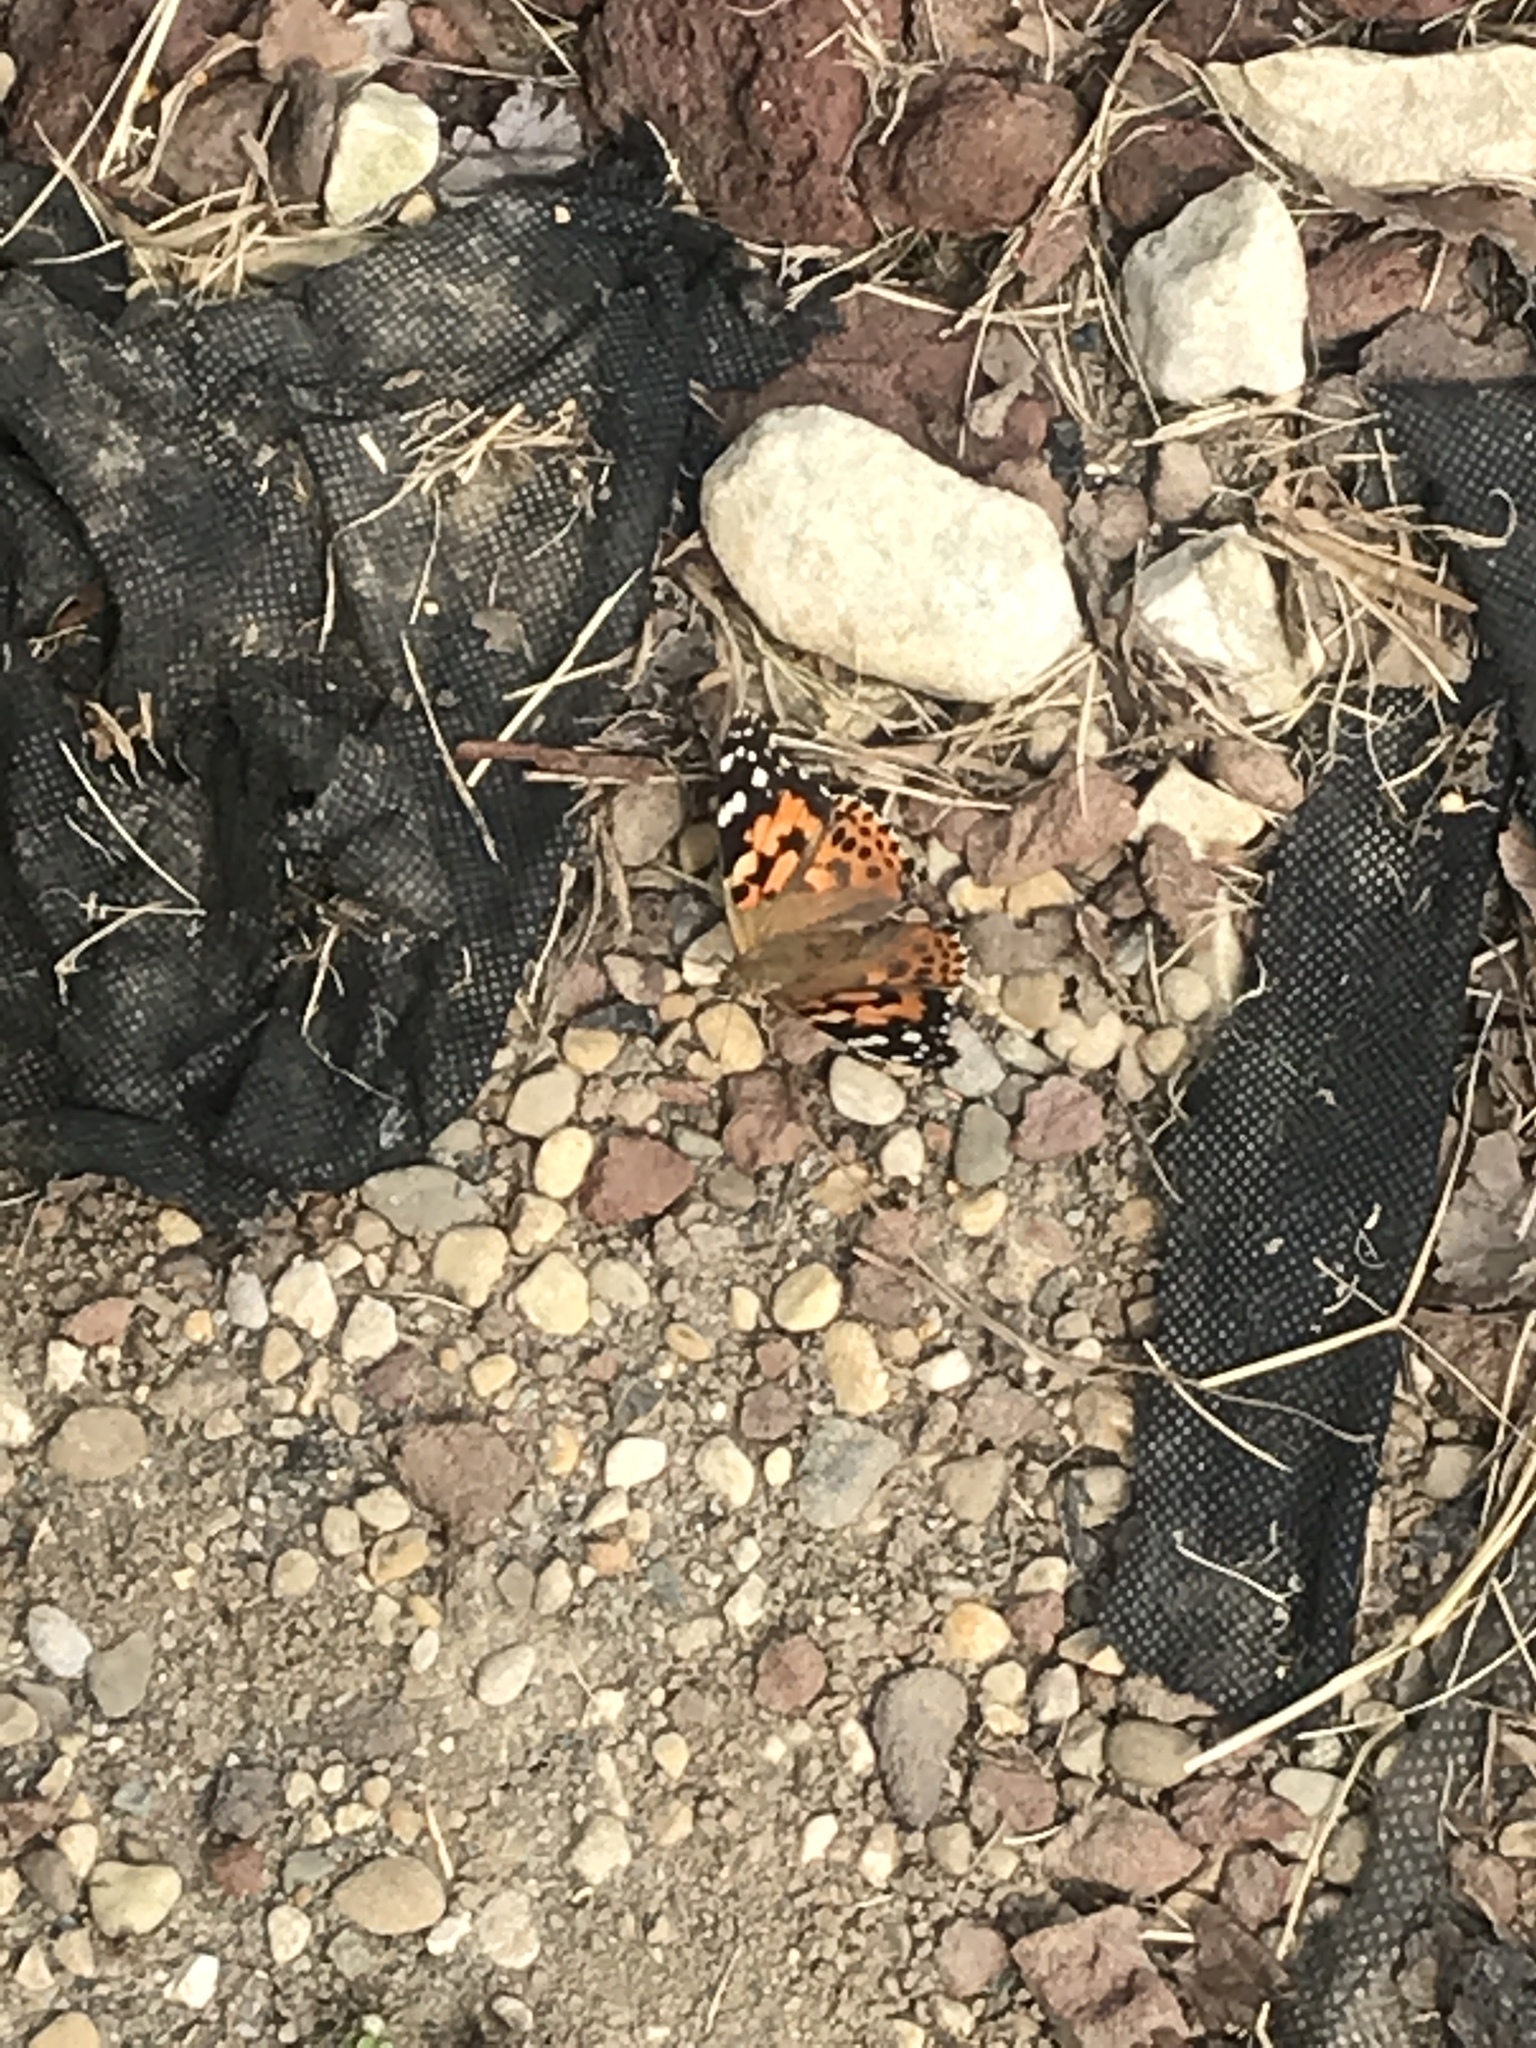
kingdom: Animalia
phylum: Arthropoda
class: Insecta
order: Lepidoptera
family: Nymphalidae
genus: Vanessa
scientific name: Vanessa cardui
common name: Painted lady
